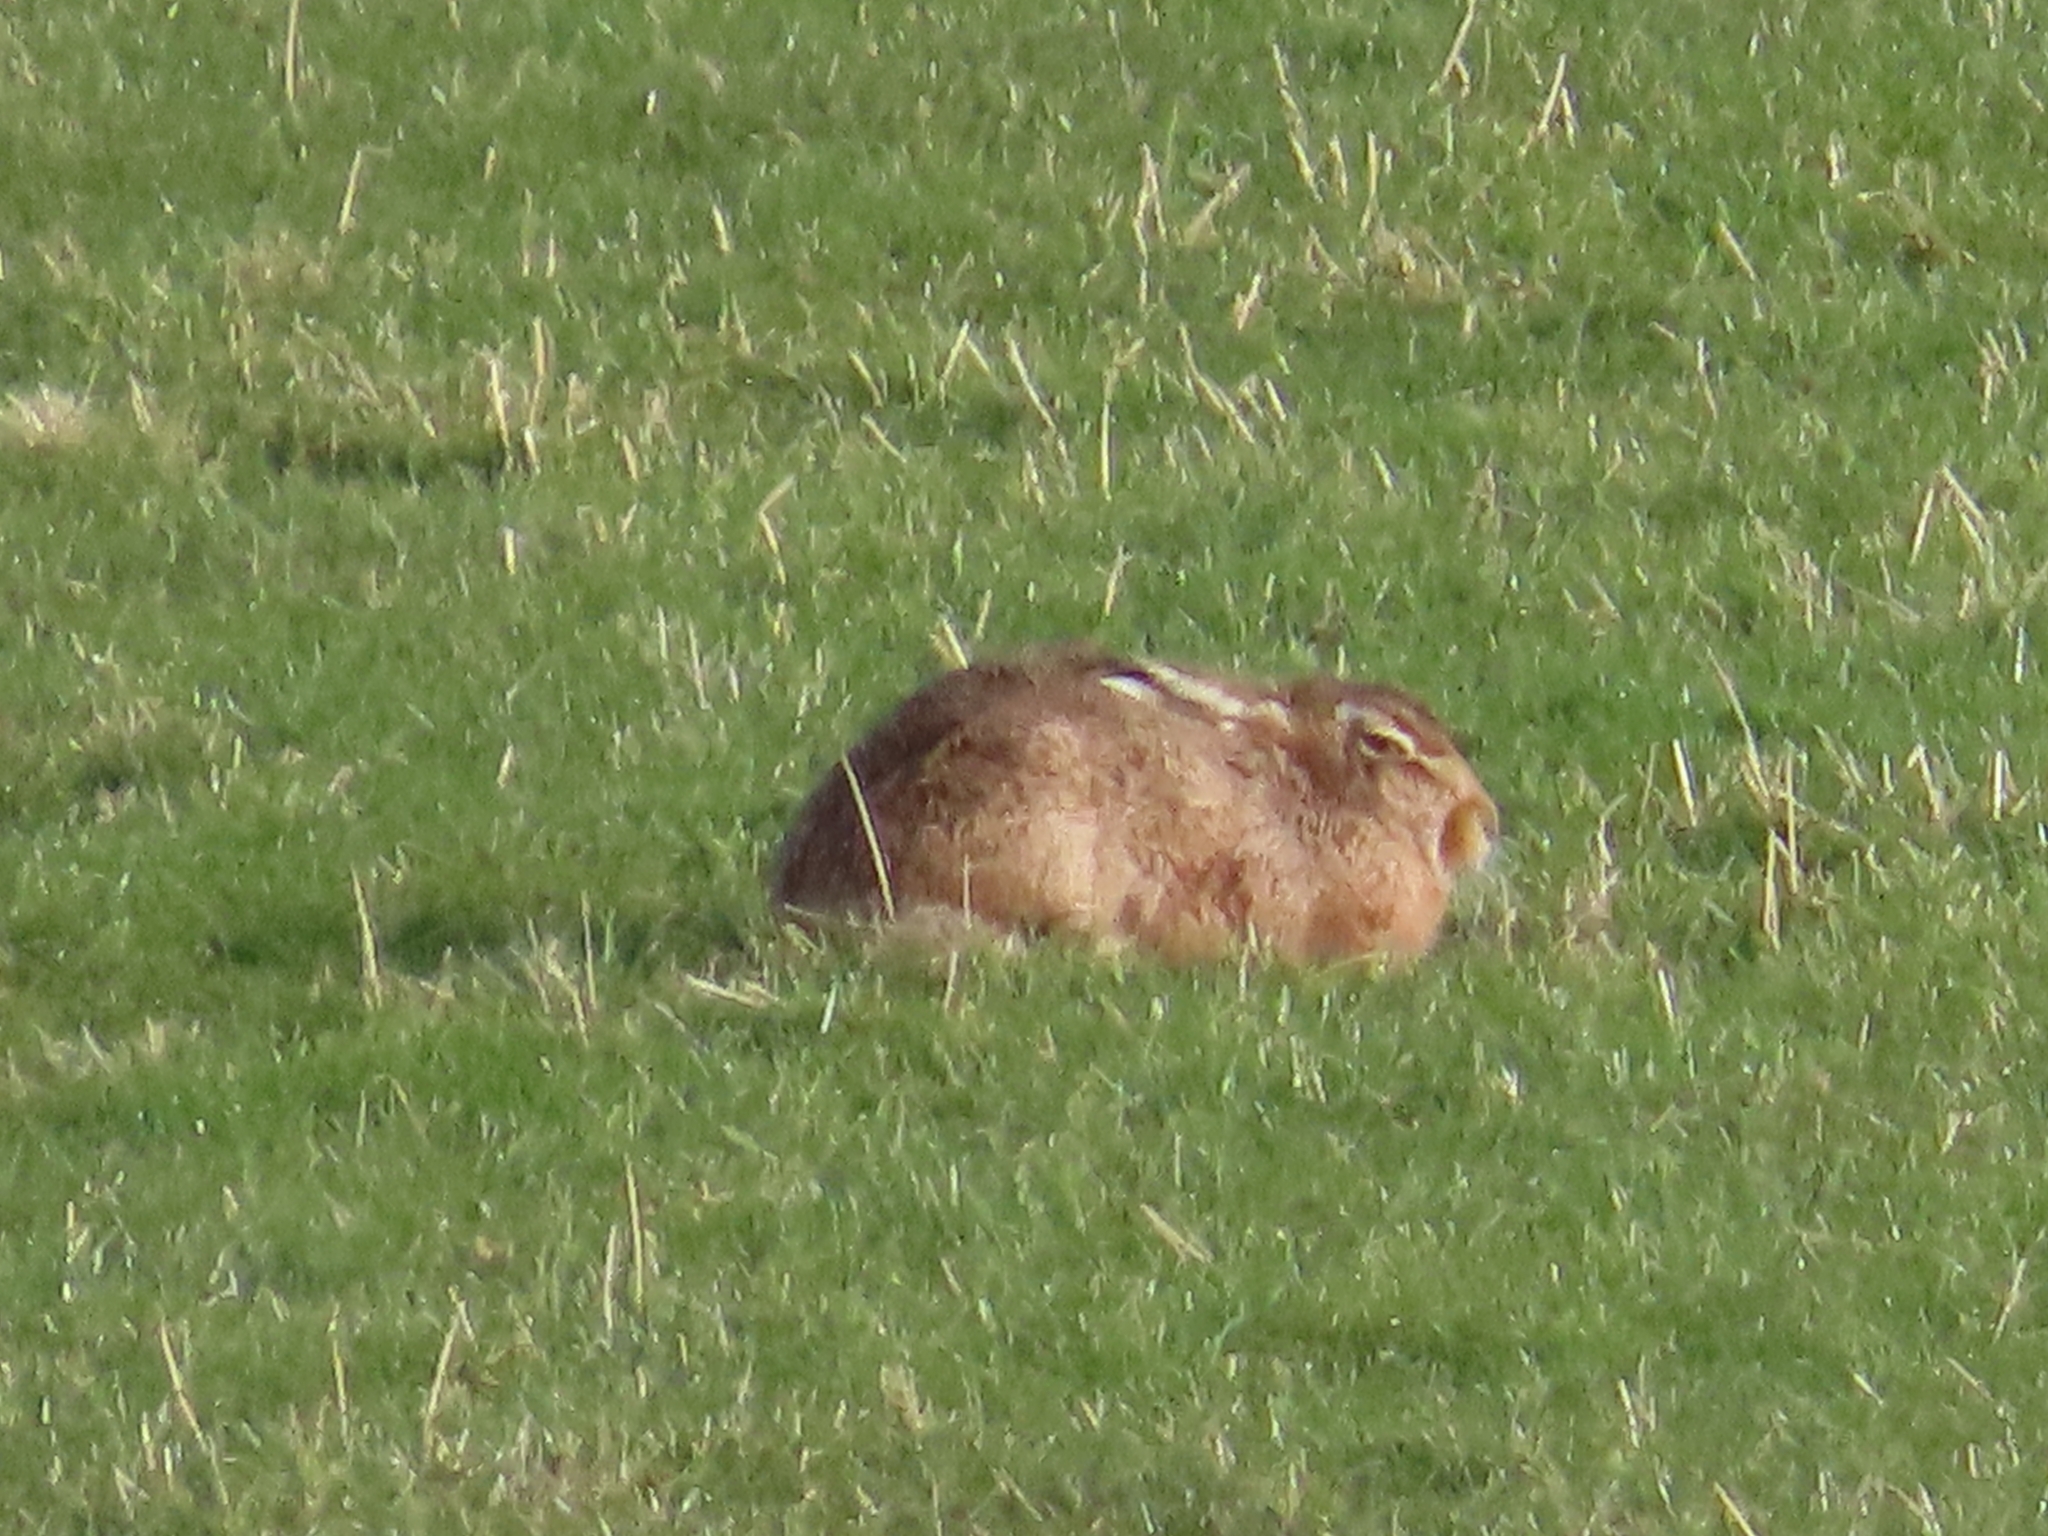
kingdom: Animalia
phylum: Chordata
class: Mammalia
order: Lagomorpha
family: Leporidae
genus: Lepus
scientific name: Lepus europaeus
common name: European hare
